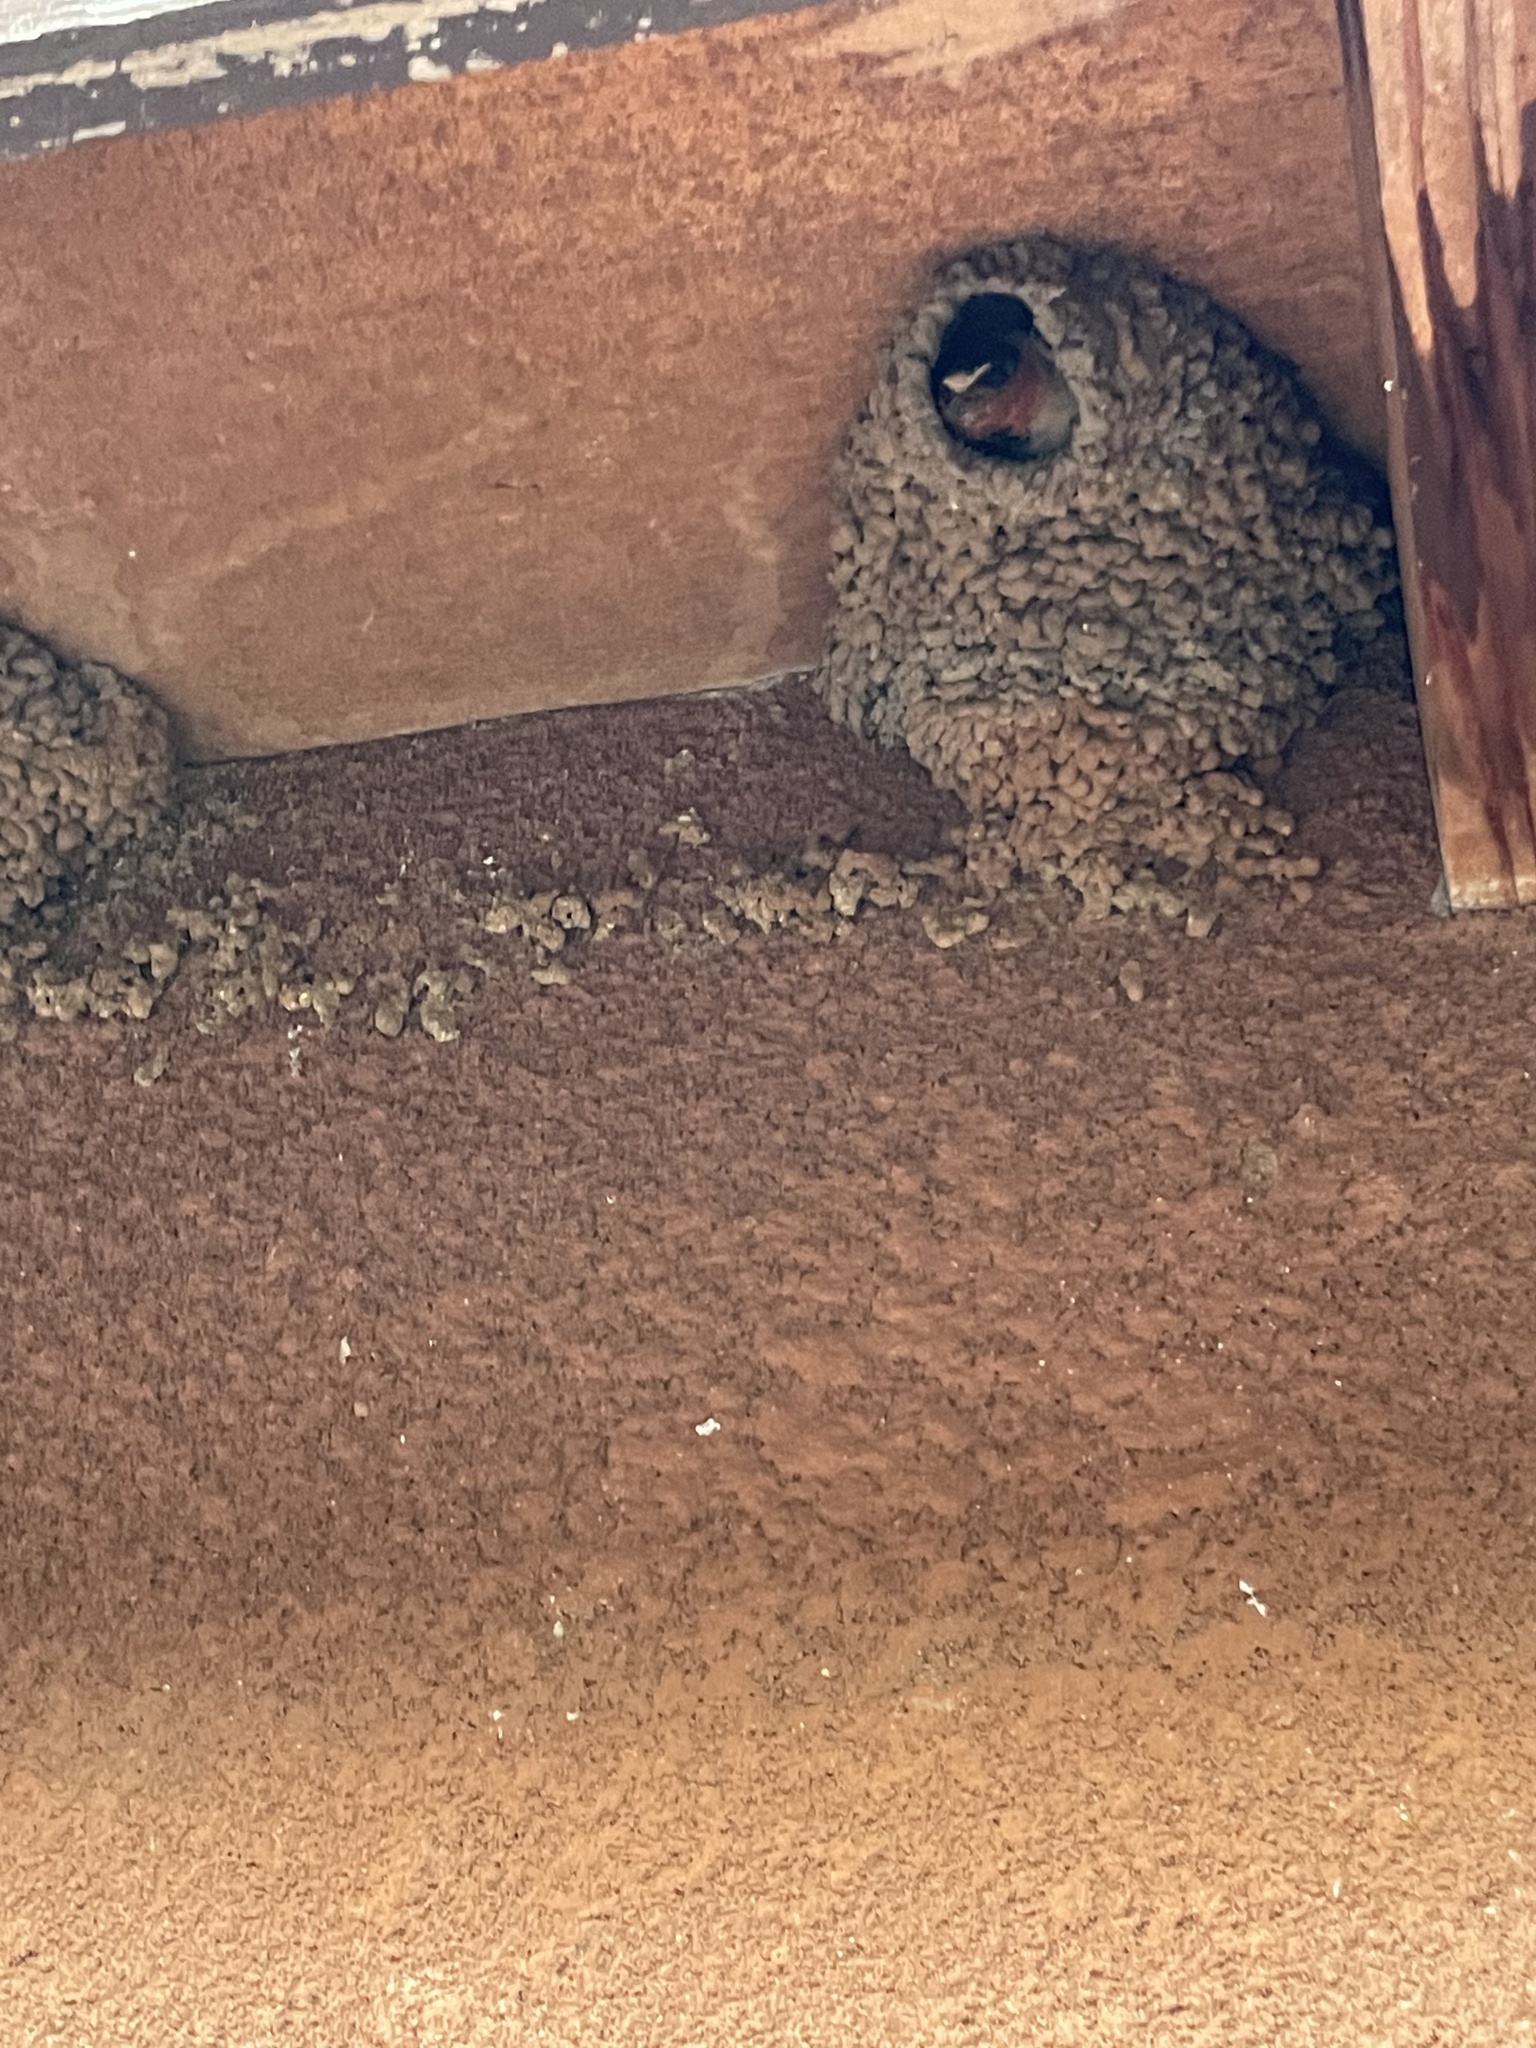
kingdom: Animalia
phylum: Chordata
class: Aves
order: Passeriformes
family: Hirundinidae
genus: Hirundo
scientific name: Hirundo rustica
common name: Barn swallow
